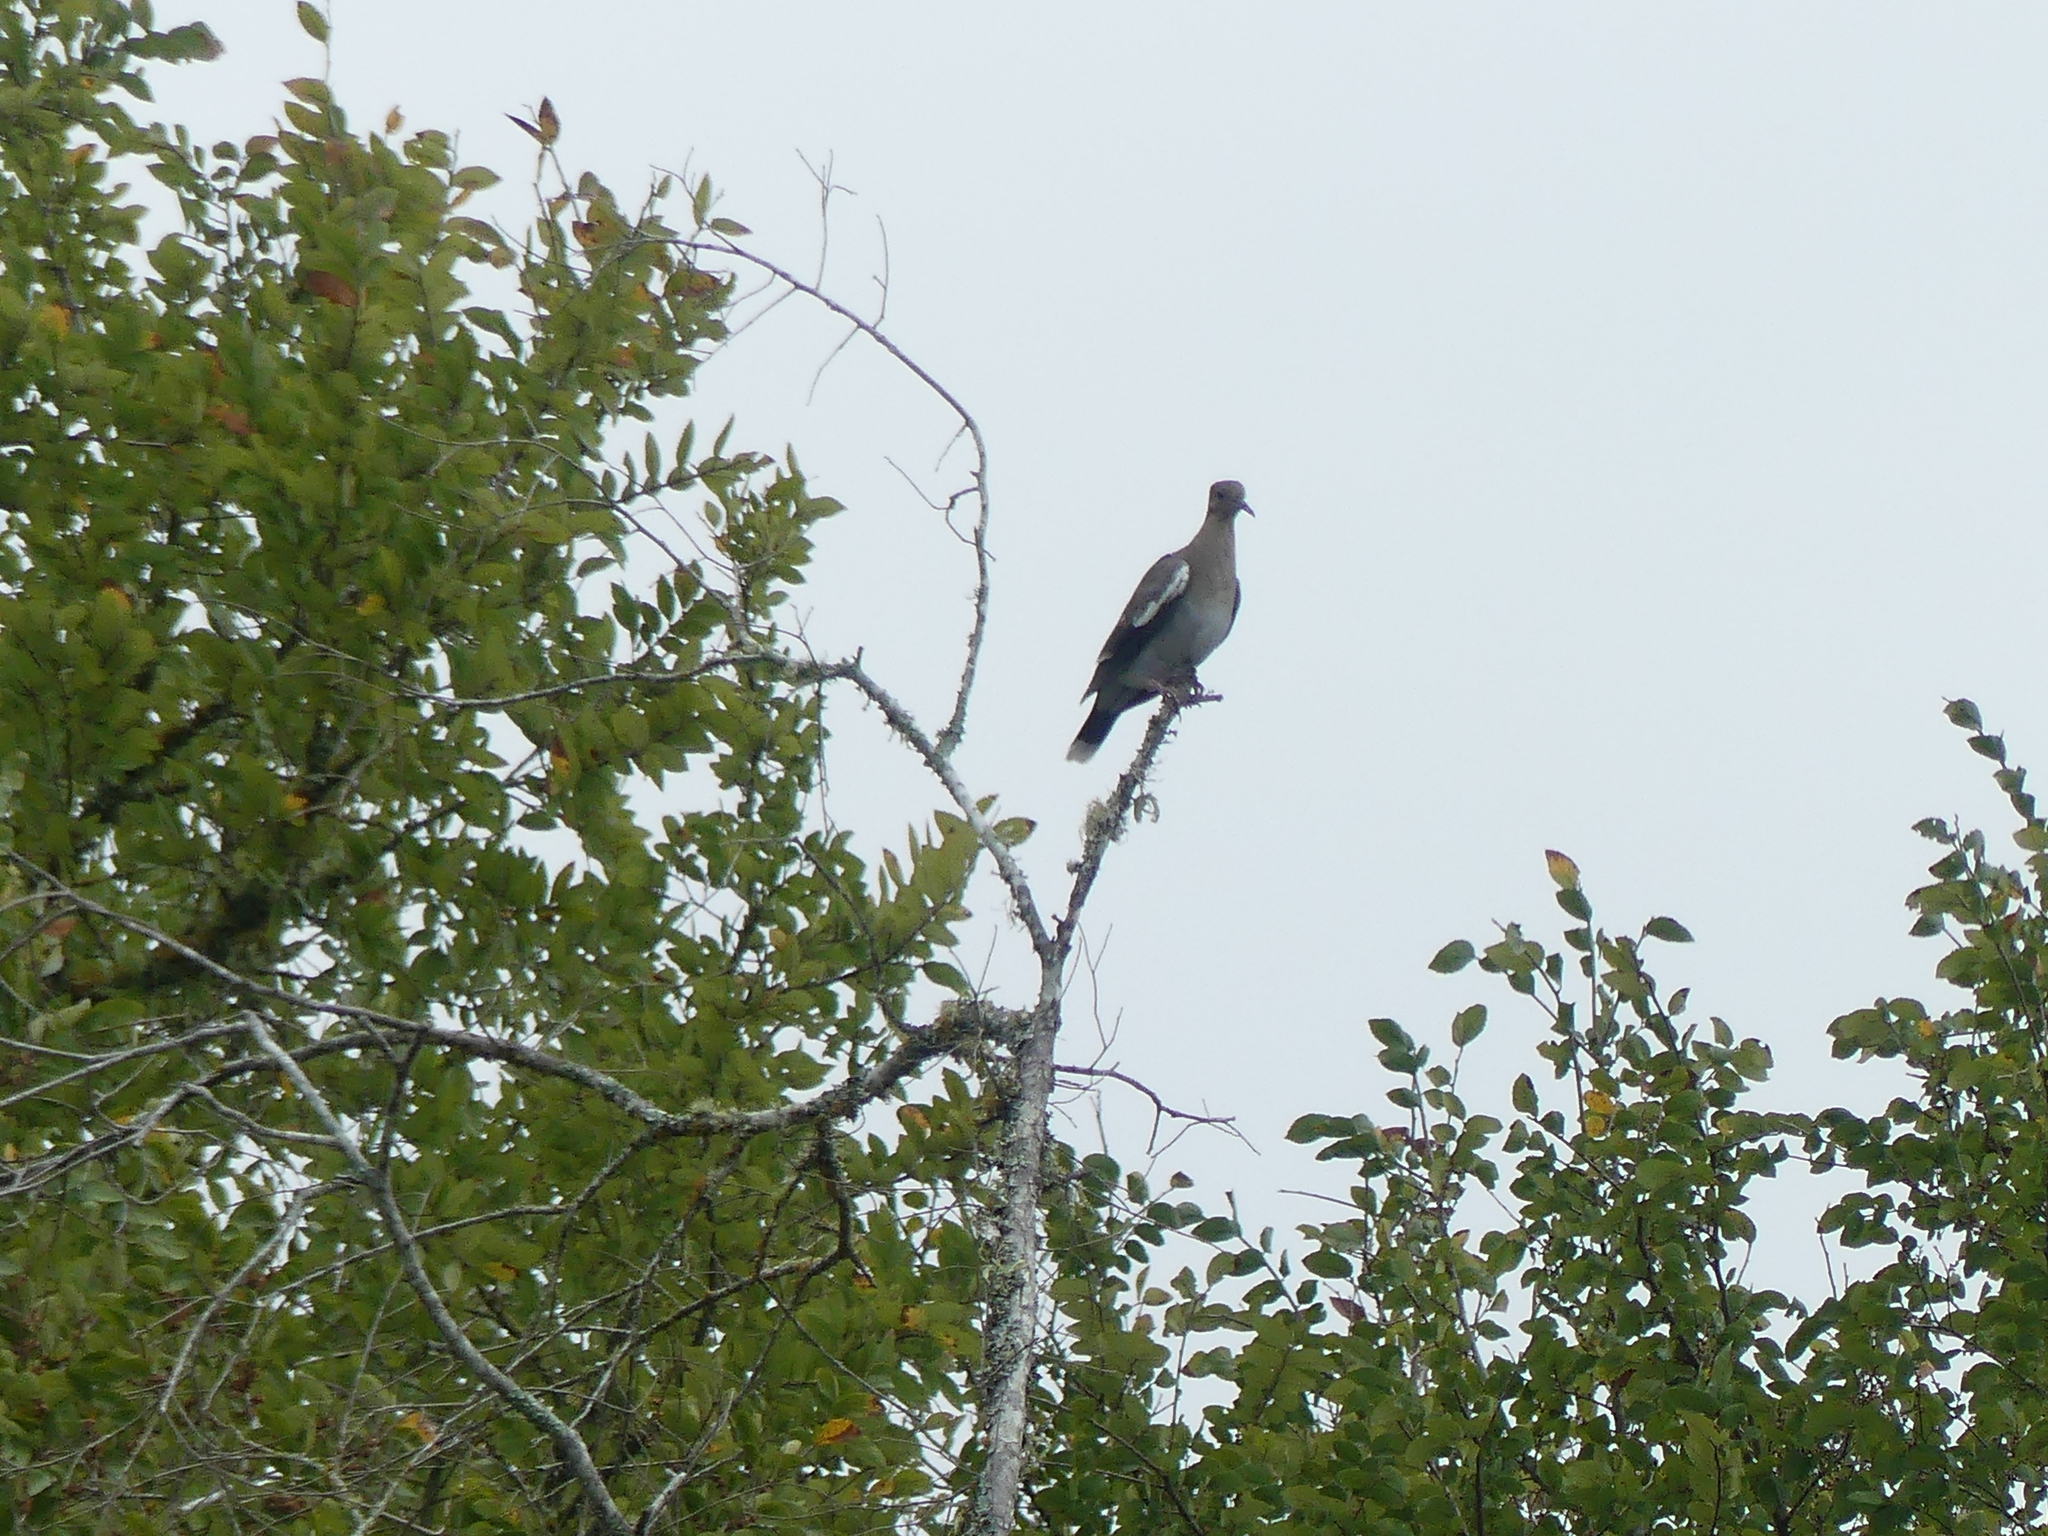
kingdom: Animalia
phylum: Chordata
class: Aves
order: Columbiformes
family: Columbidae
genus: Zenaida
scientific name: Zenaida asiatica
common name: White-winged dove
